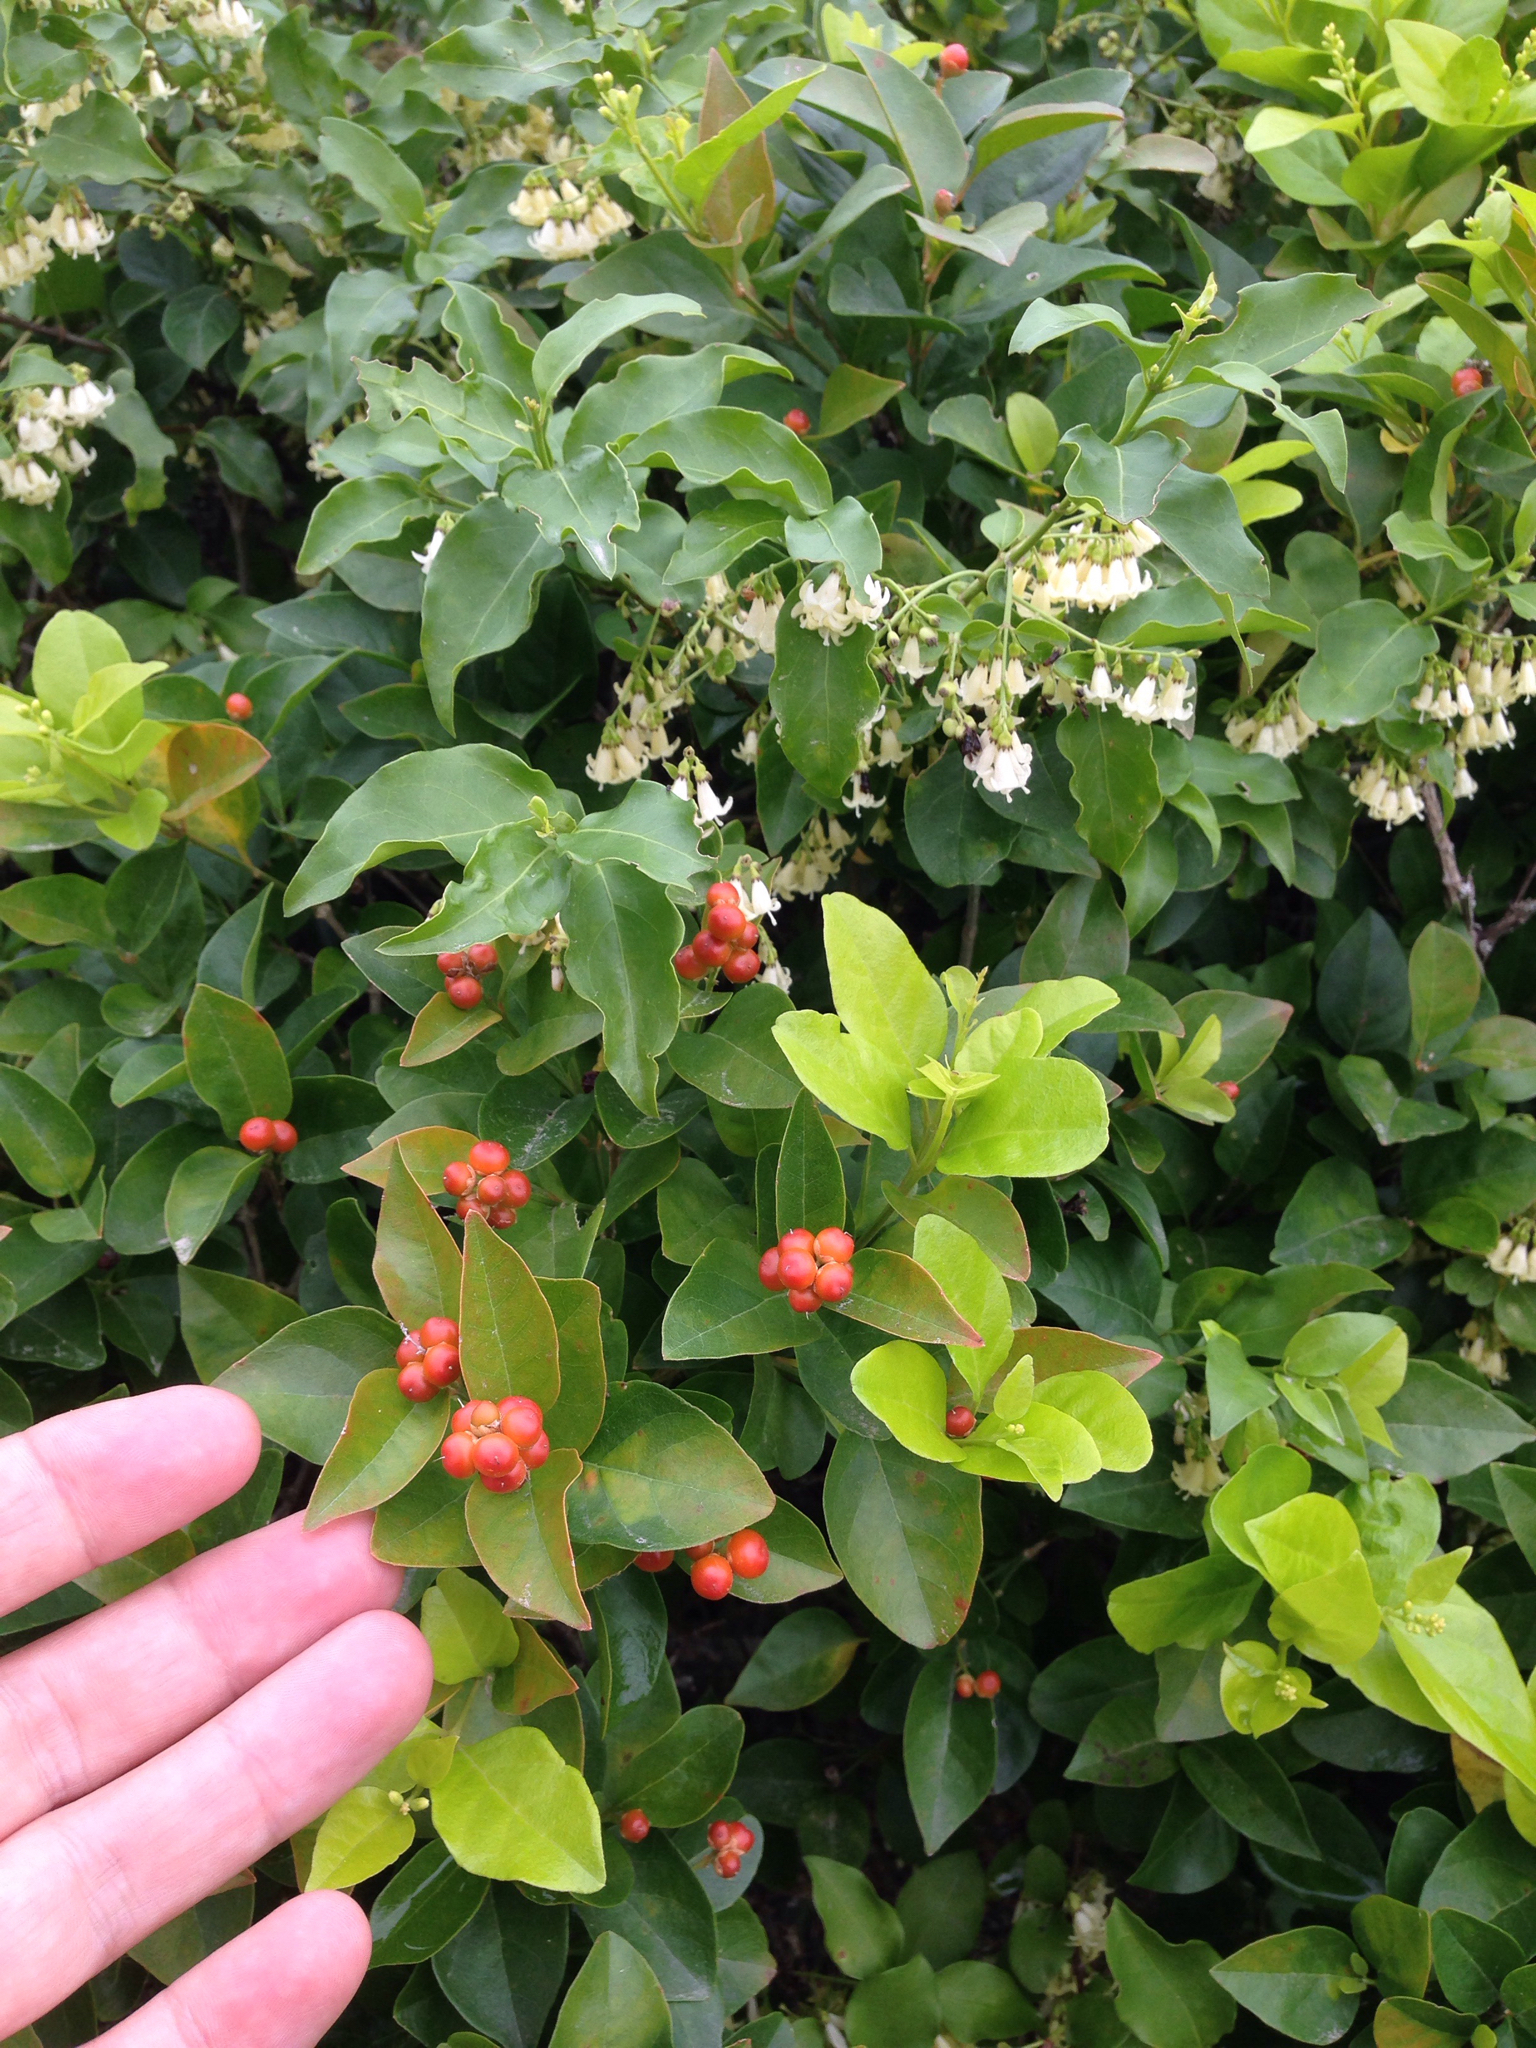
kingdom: Plantae
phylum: Tracheophyta
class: Magnoliopsida
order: Lamiales
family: Verbenaceae
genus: Citharexylum
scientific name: Citharexylum berlandieri
